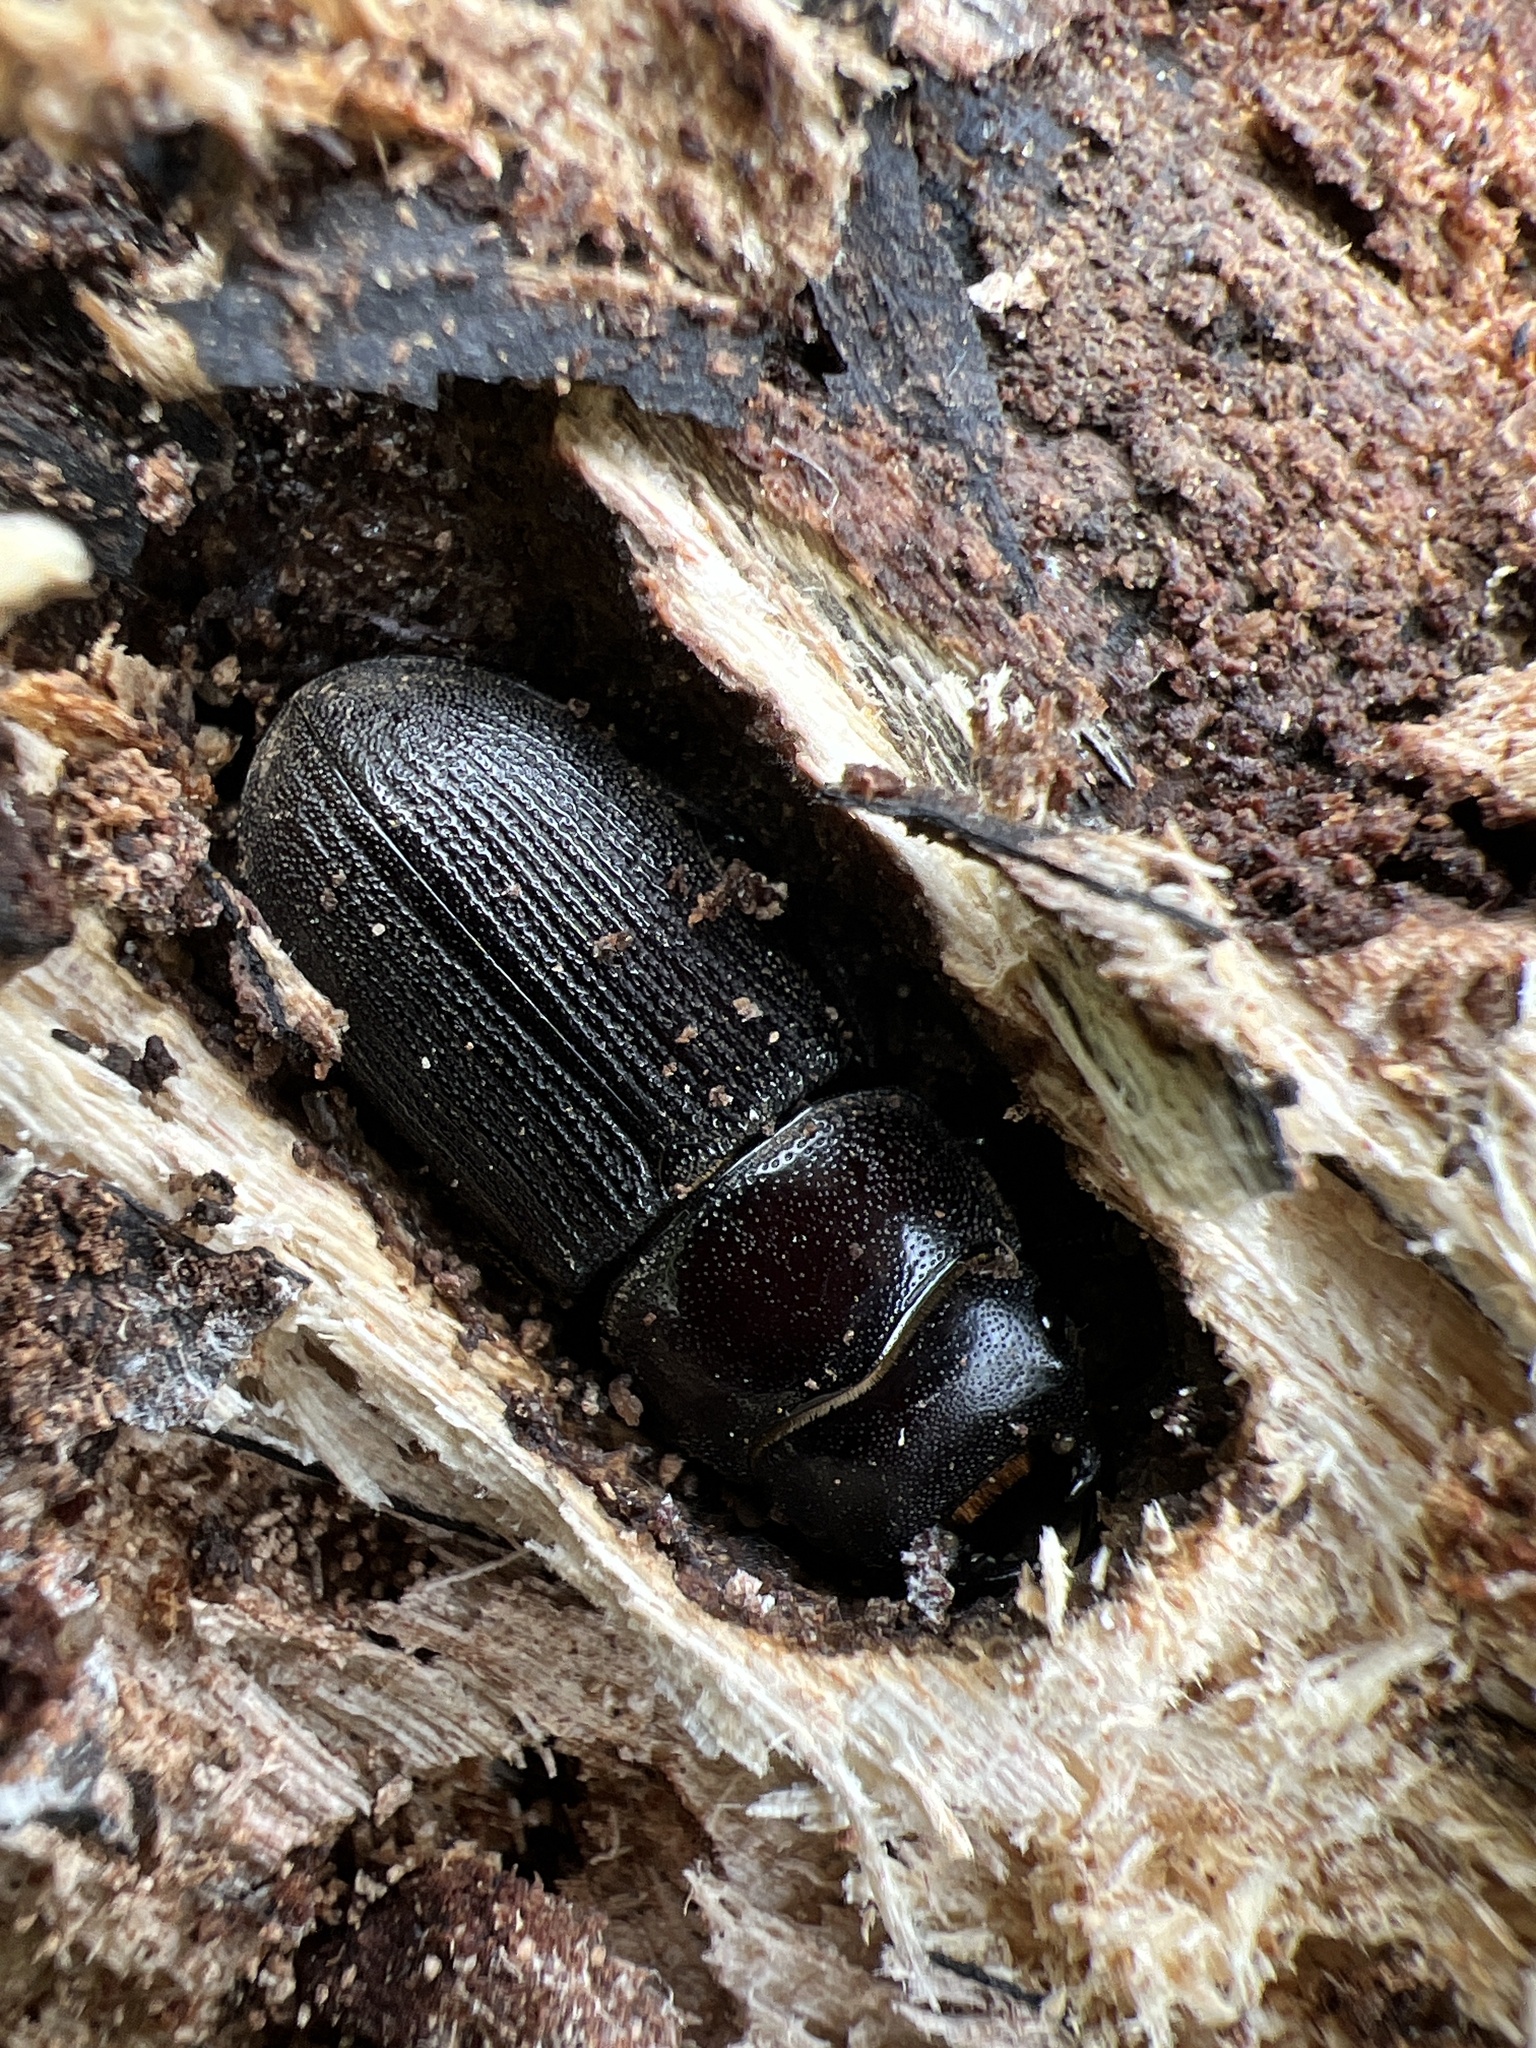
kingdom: Animalia
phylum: Arthropoda
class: Insecta
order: Coleoptera
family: Lucanidae
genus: Dorcus
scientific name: Dorcus parallelus
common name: Antelope beetle
